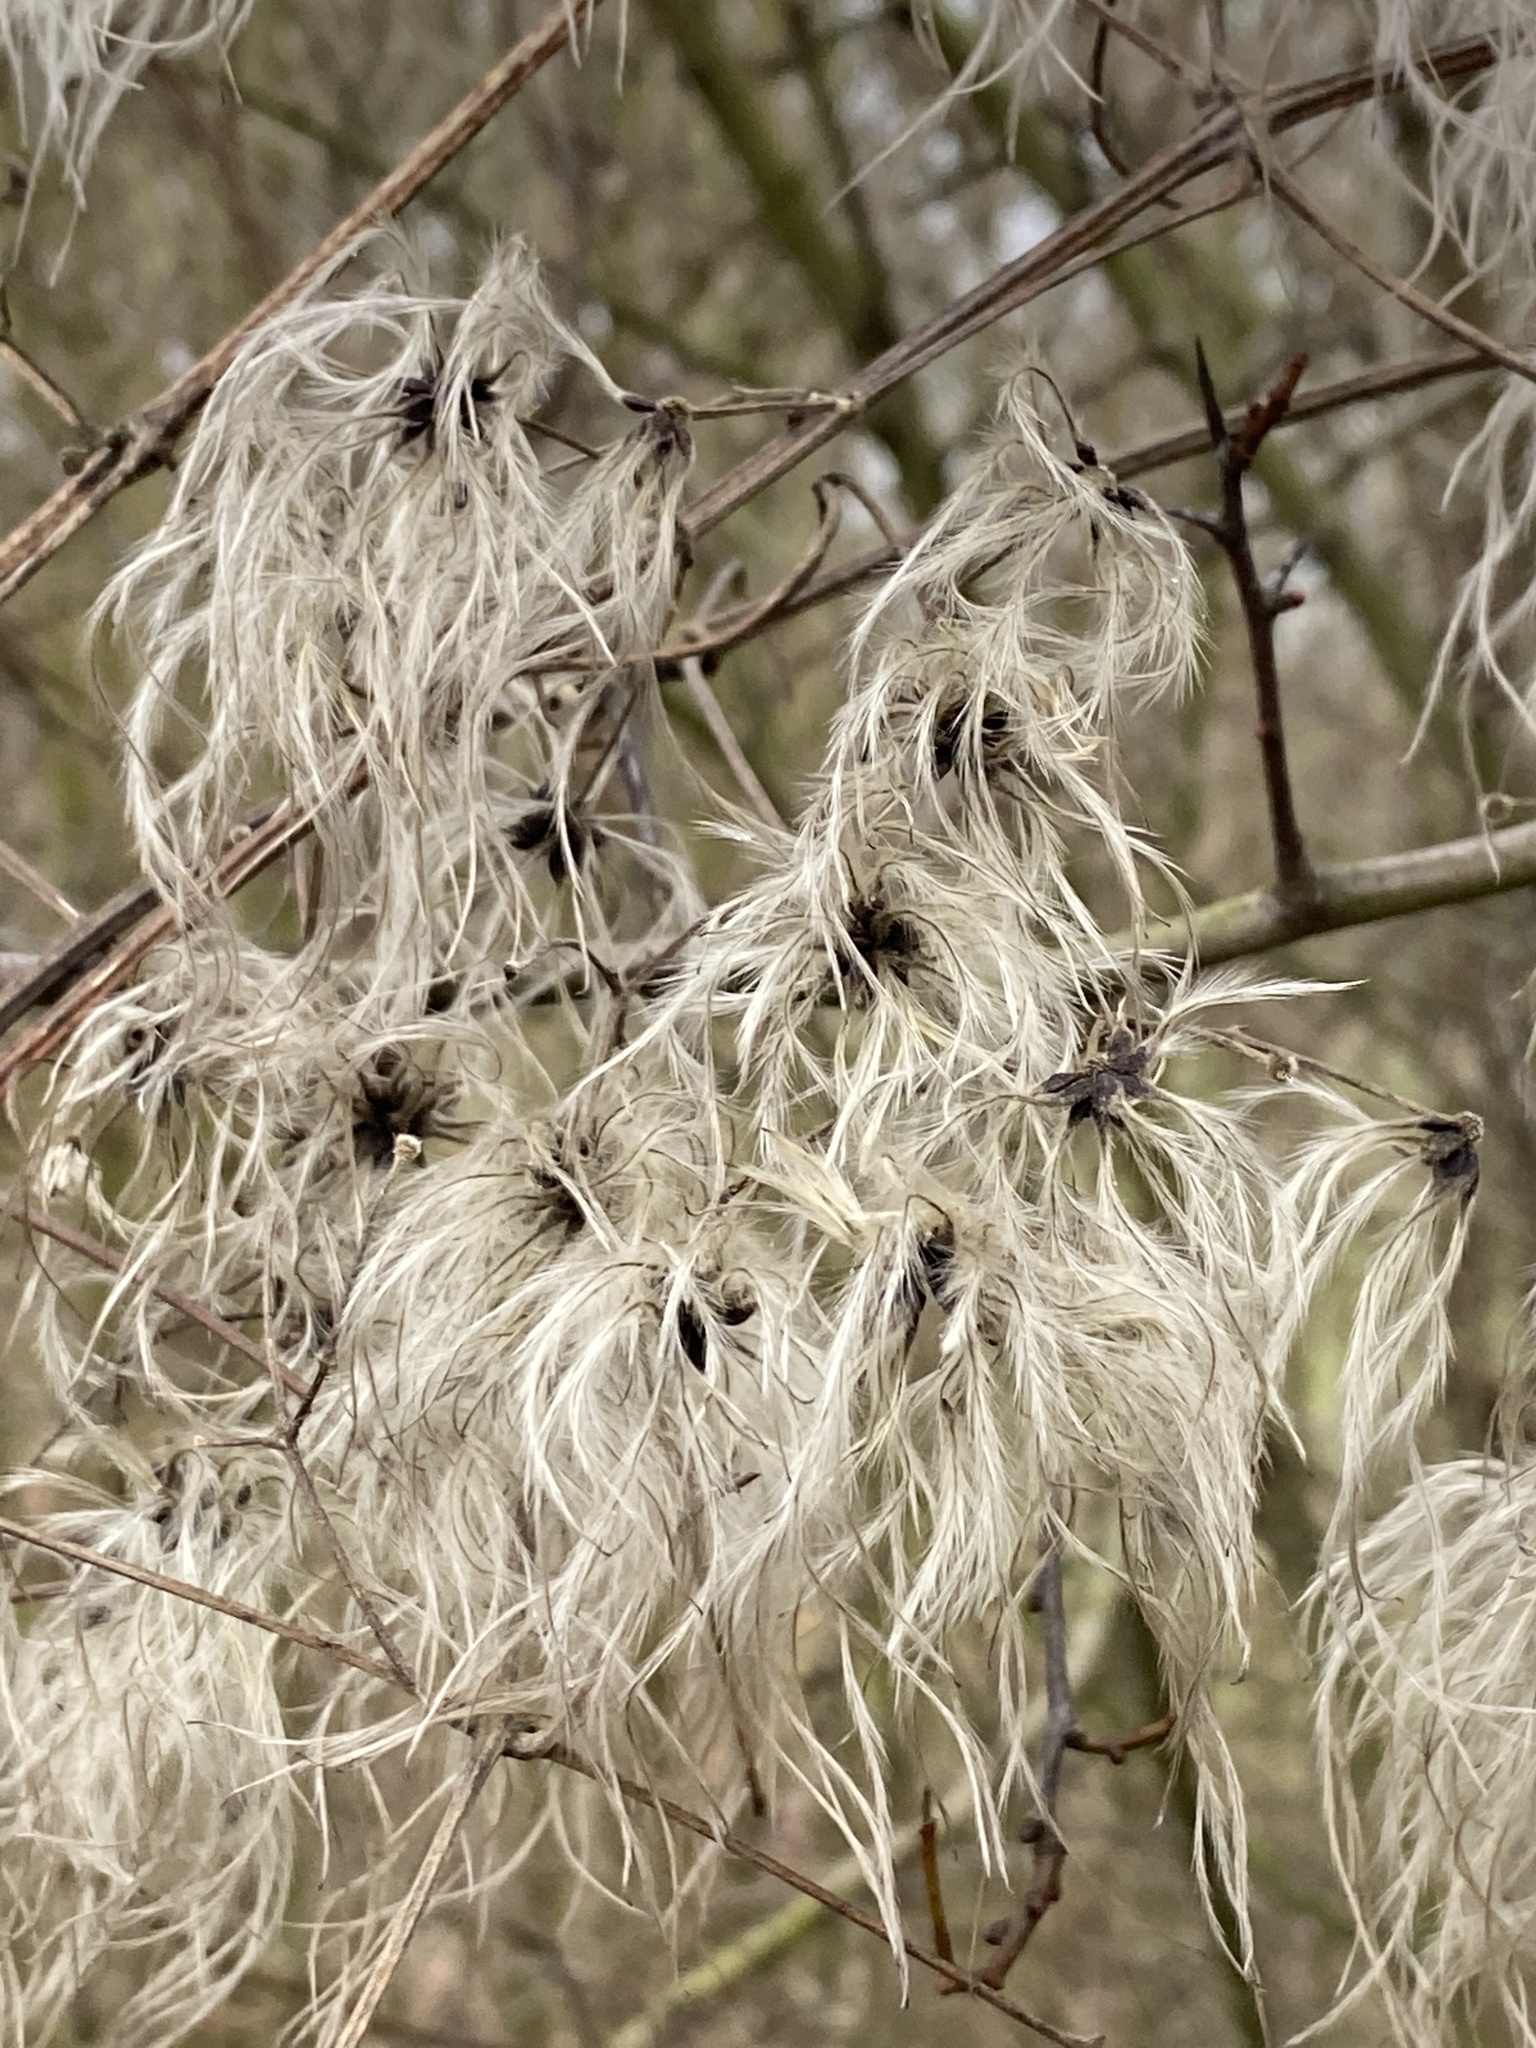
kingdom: Plantae
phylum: Tracheophyta
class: Magnoliopsida
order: Ranunculales
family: Ranunculaceae
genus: Clematis
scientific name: Clematis vitalba
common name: Evergreen clematis
